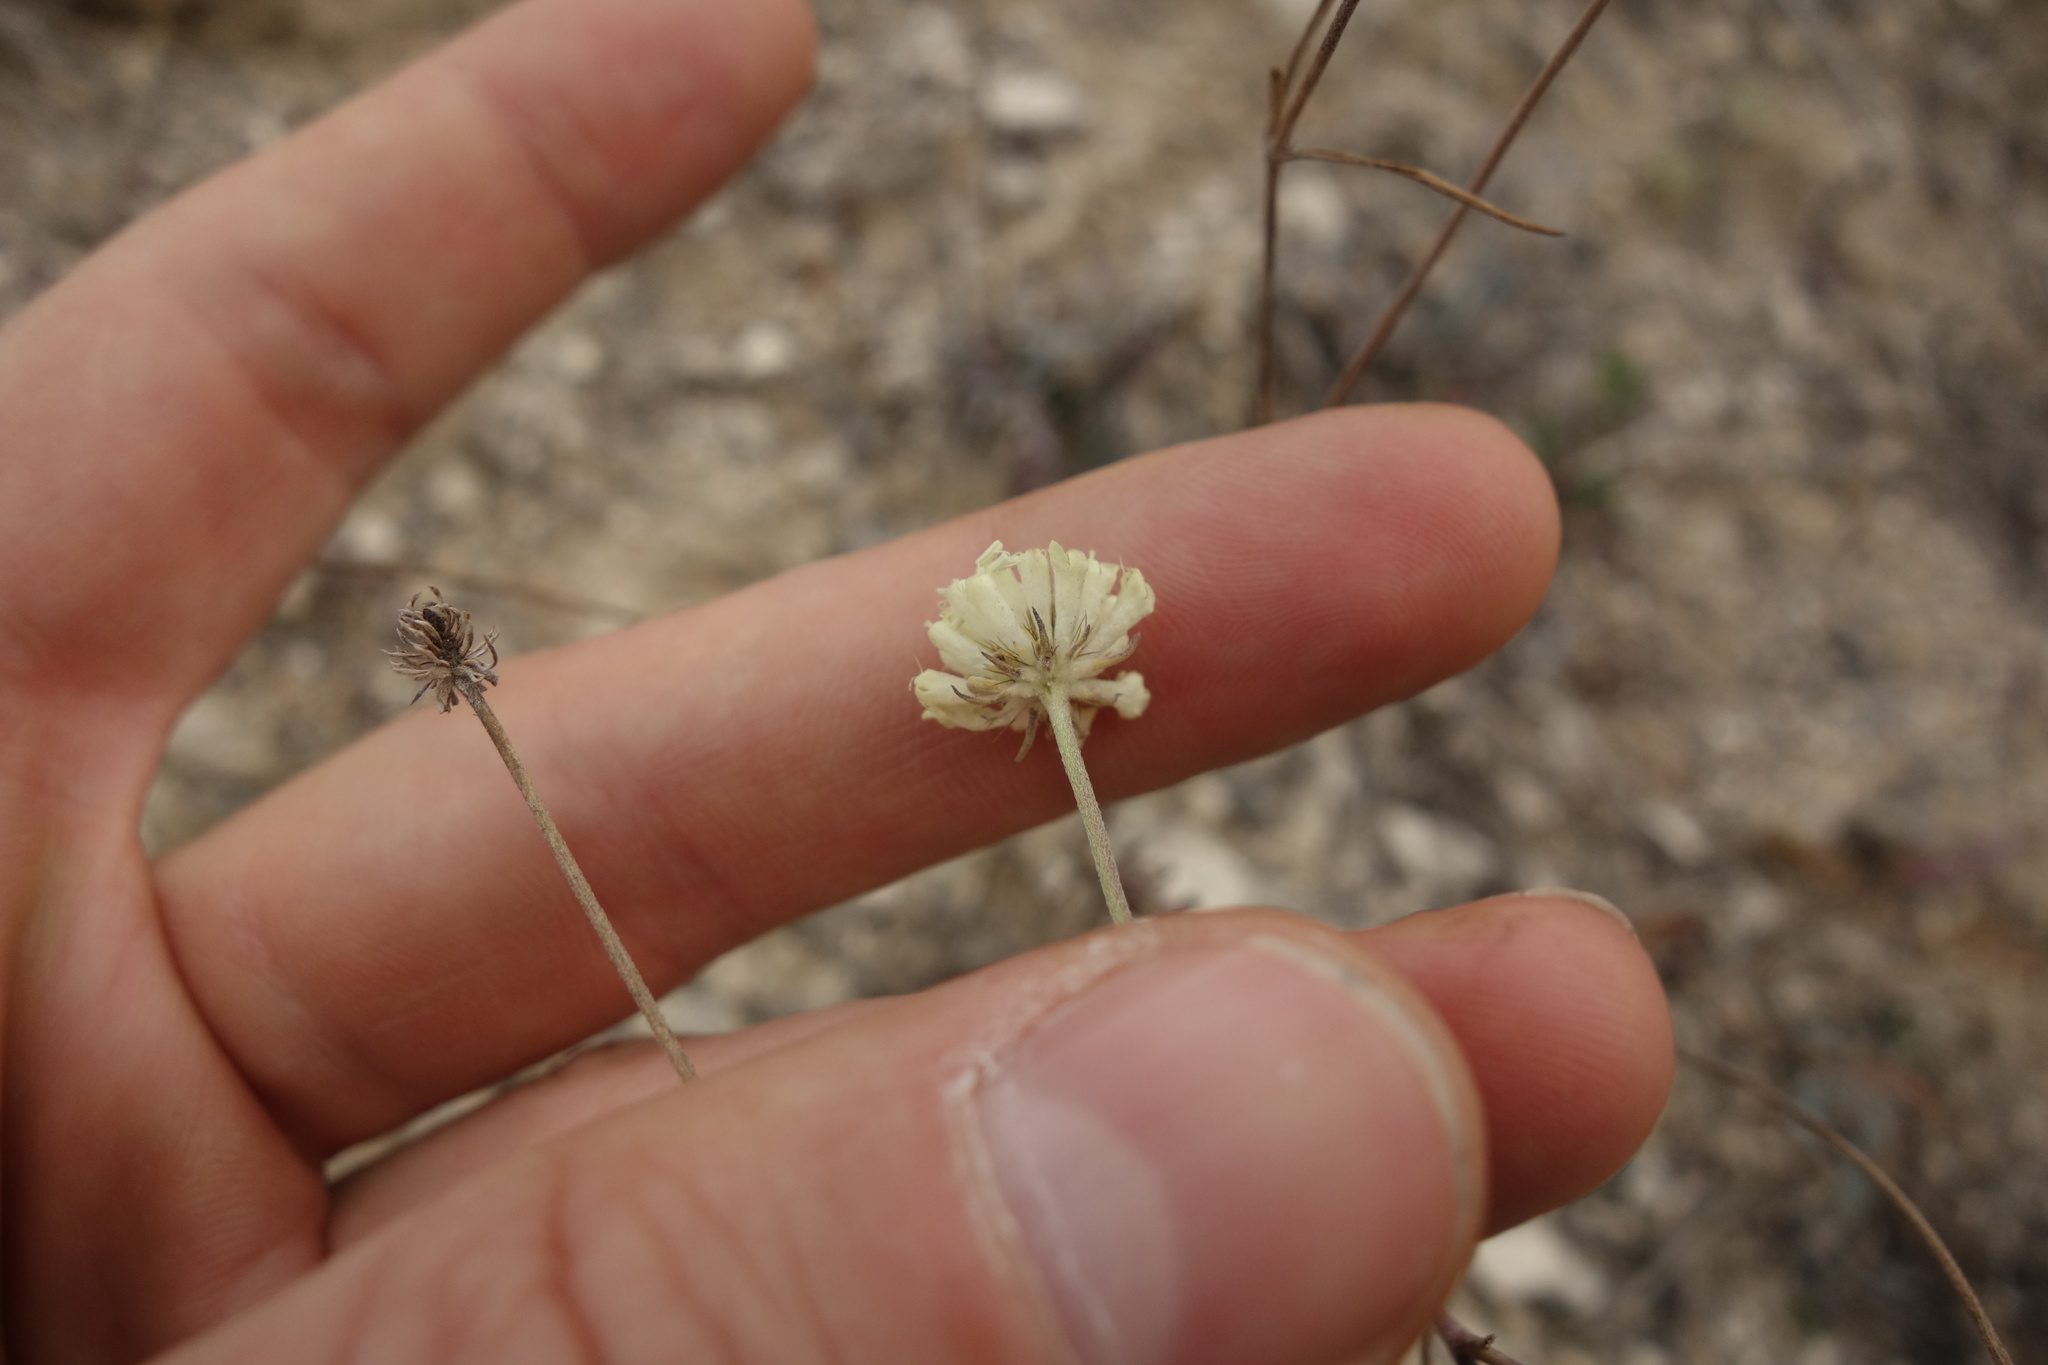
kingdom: Plantae
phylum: Tracheophyta
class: Magnoliopsida
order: Dipsacales
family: Caprifoliaceae
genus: Scabiosa
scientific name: Scabiosa ochroleuca
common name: Cream pincushions
